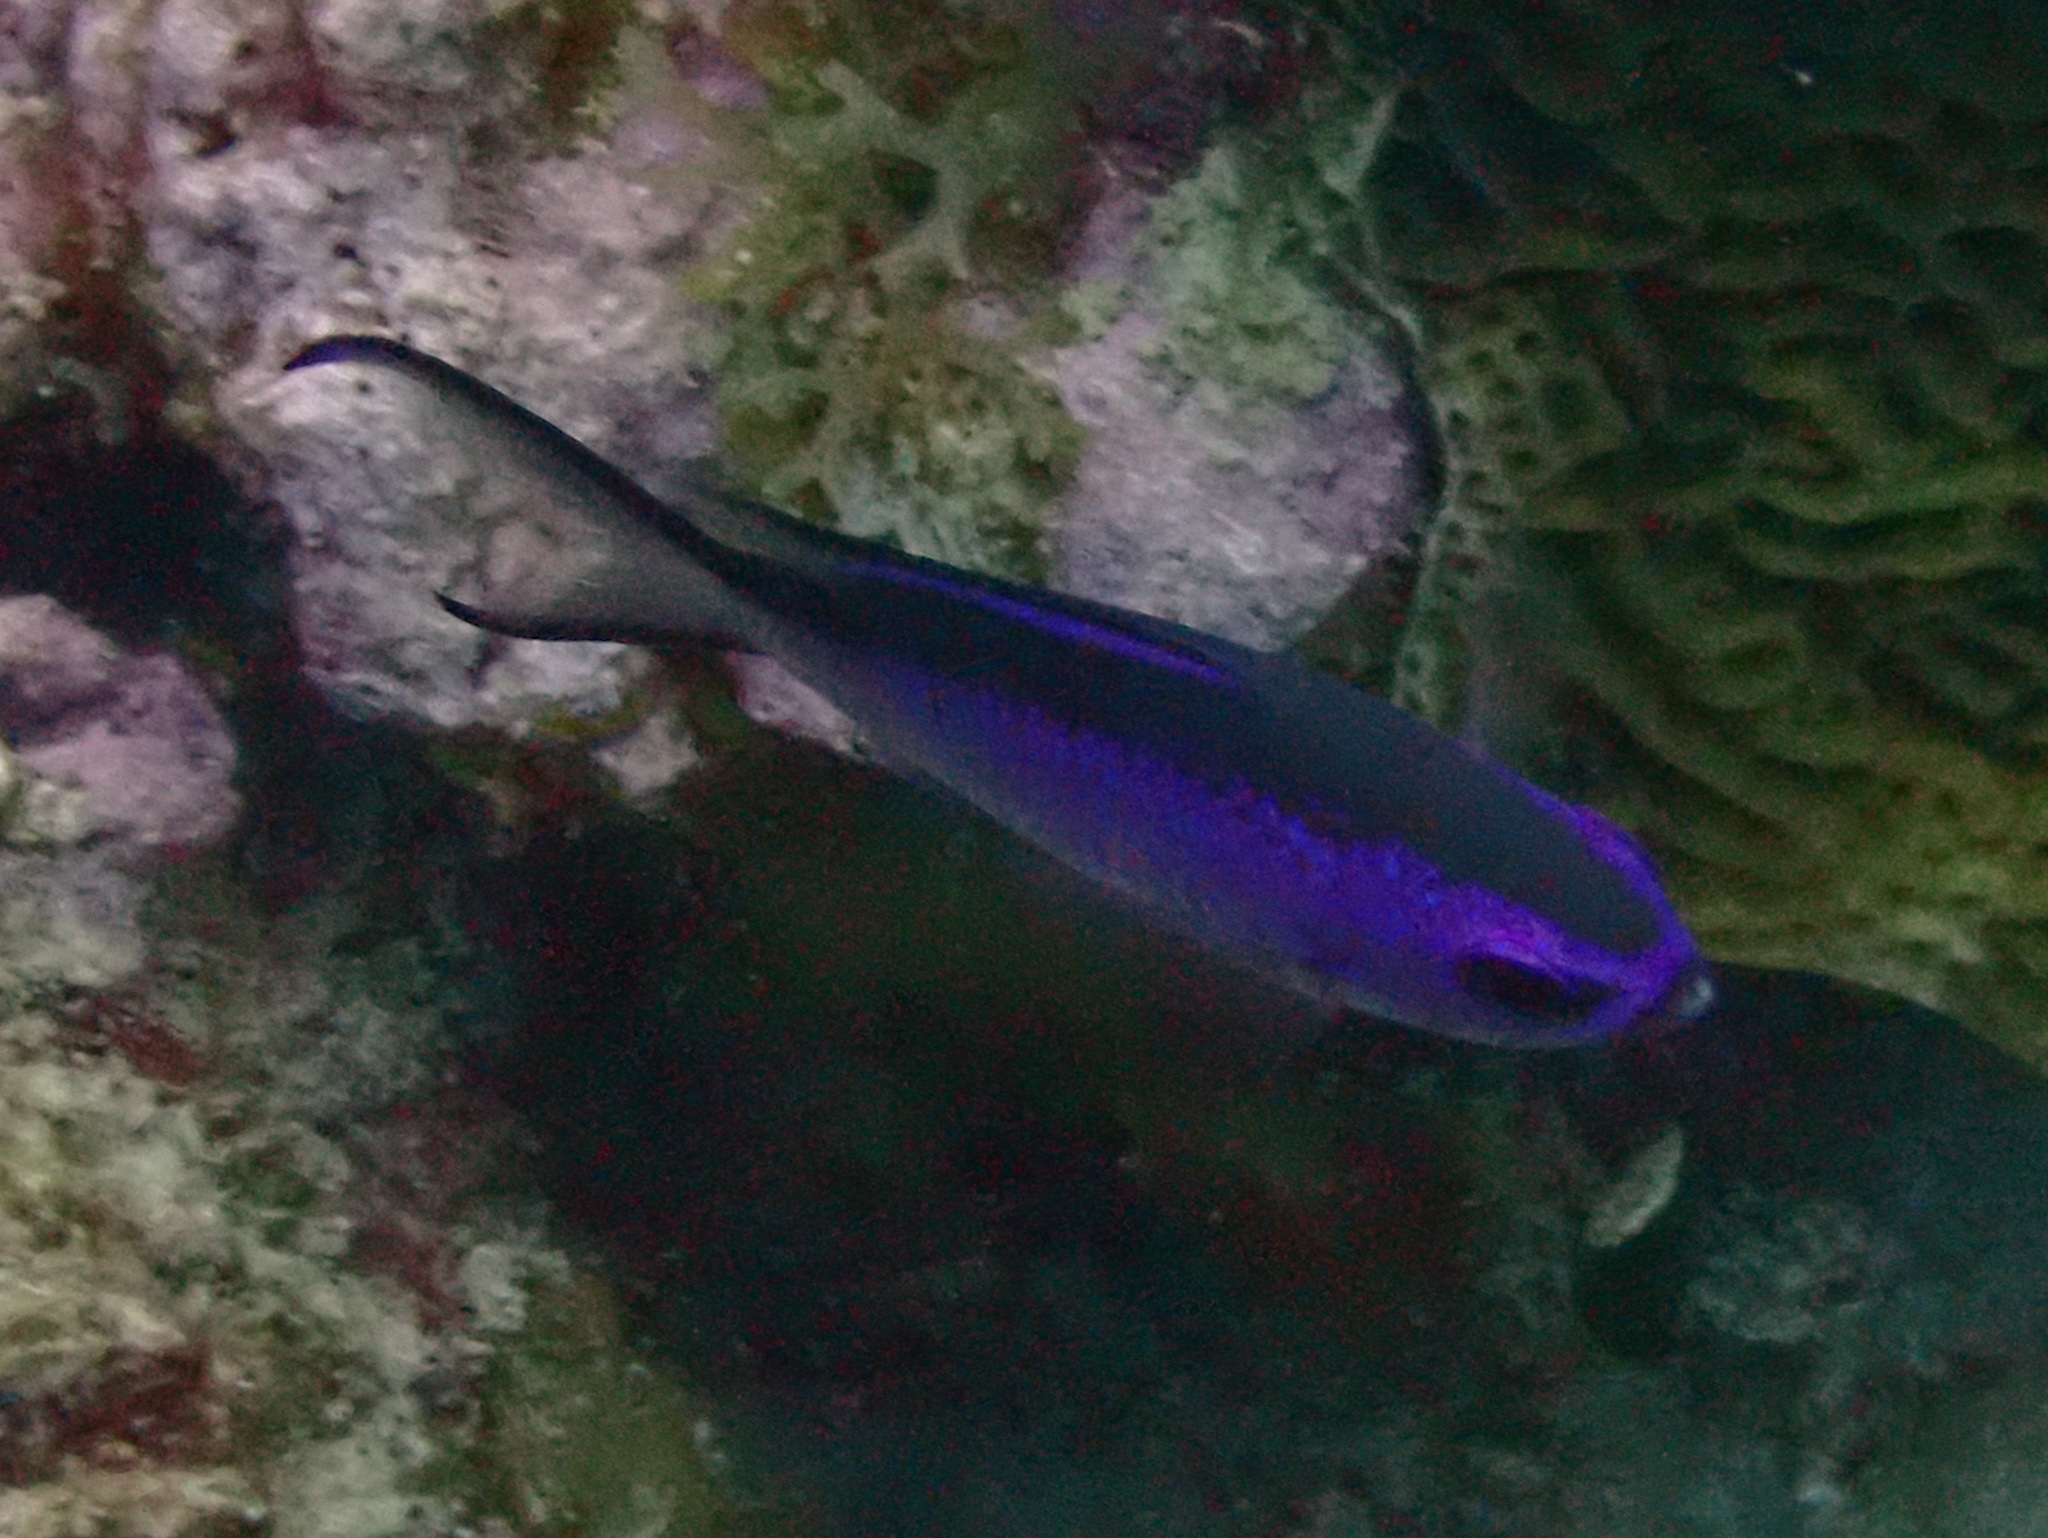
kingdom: Animalia
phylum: Chordata
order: Perciformes
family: Pomacentridae
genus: Chromis
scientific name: Chromis cyanea
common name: Blue chromis
